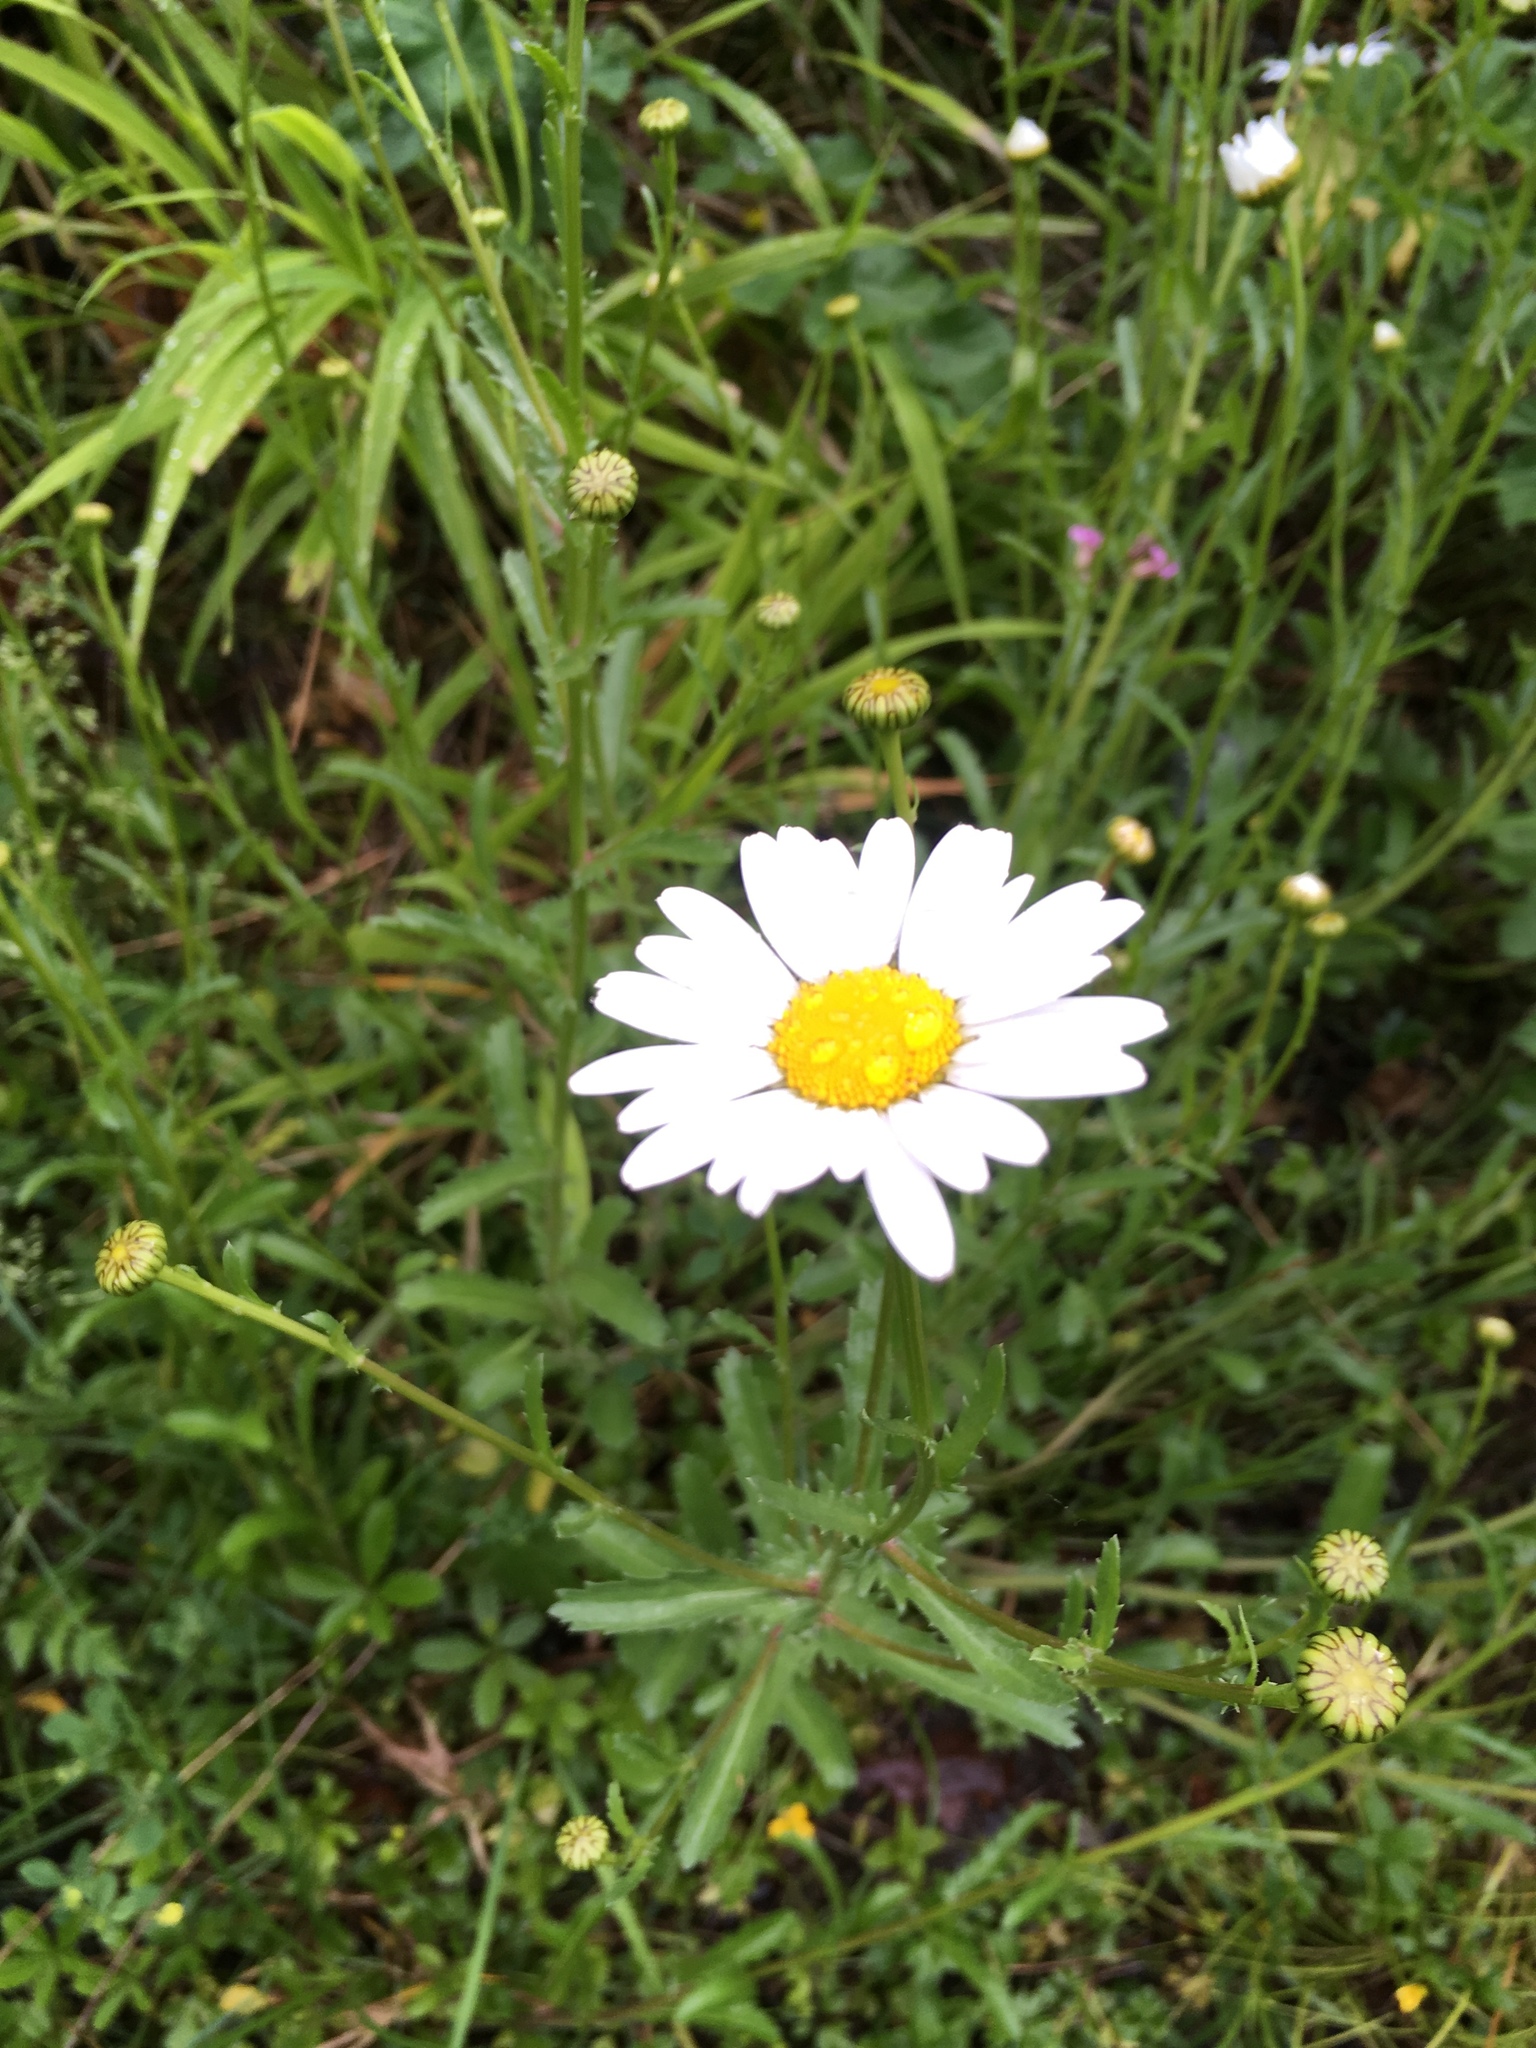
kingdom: Plantae
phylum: Tracheophyta
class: Magnoliopsida
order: Asterales
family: Asteraceae
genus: Leucanthemum
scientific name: Leucanthemum vulgare
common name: Oxeye daisy
